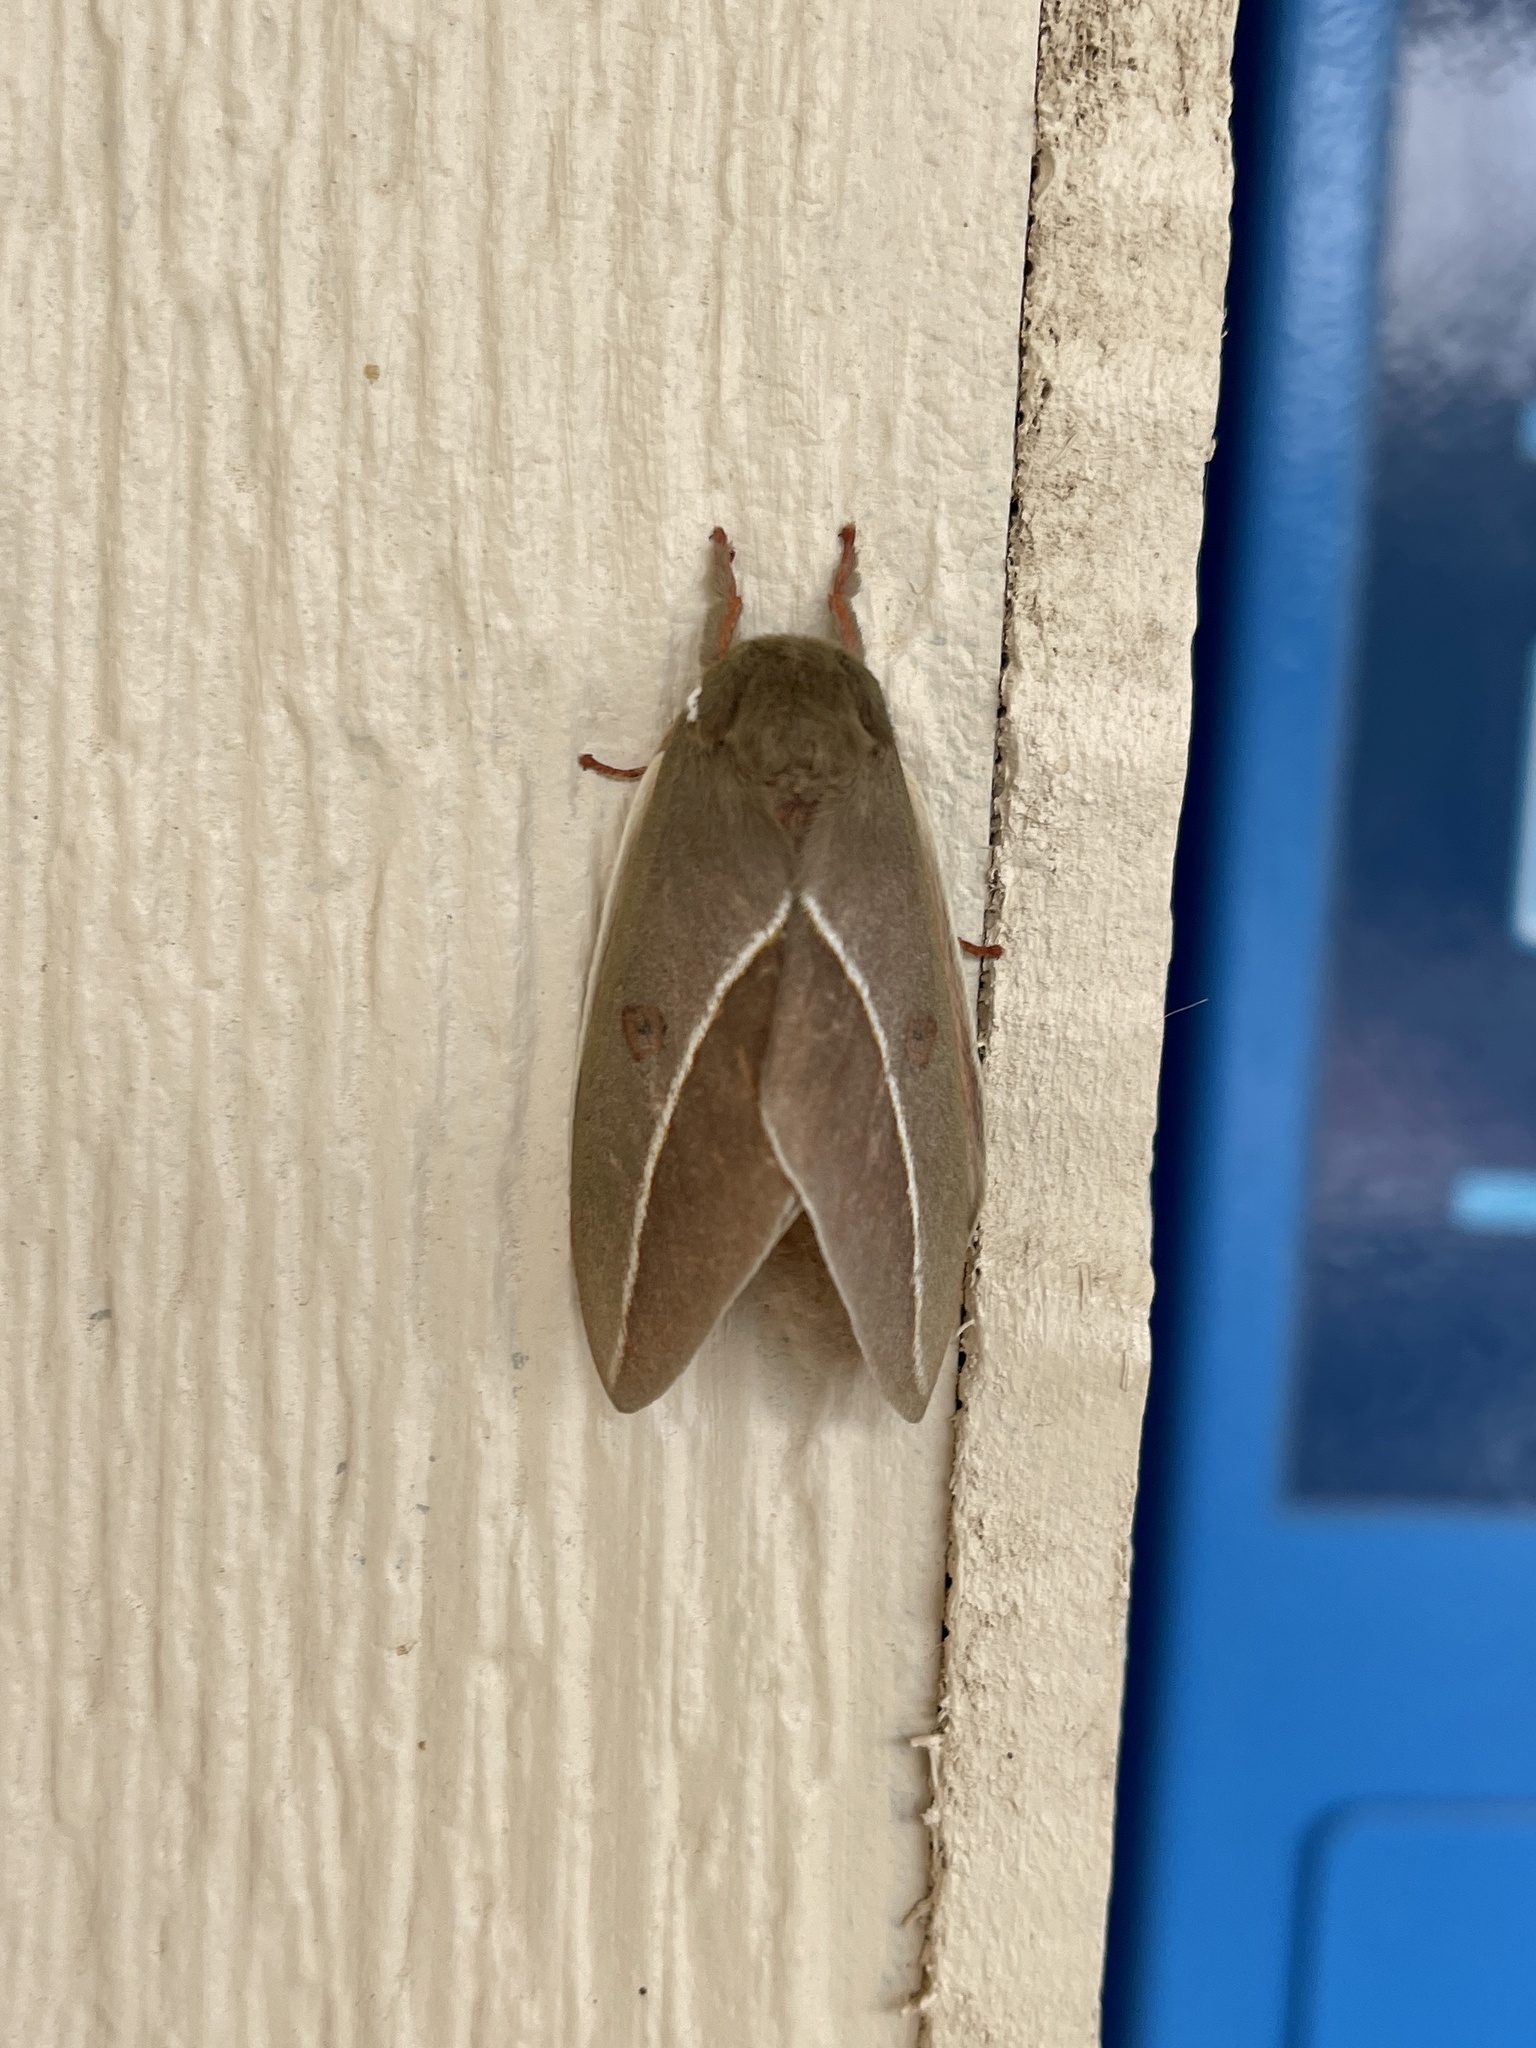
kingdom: Animalia
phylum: Arthropoda
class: Insecta
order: Lepidoptera
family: Saturniidae
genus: Automeris
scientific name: Automeris zephyria
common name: Zephyr eyed silkmoth
